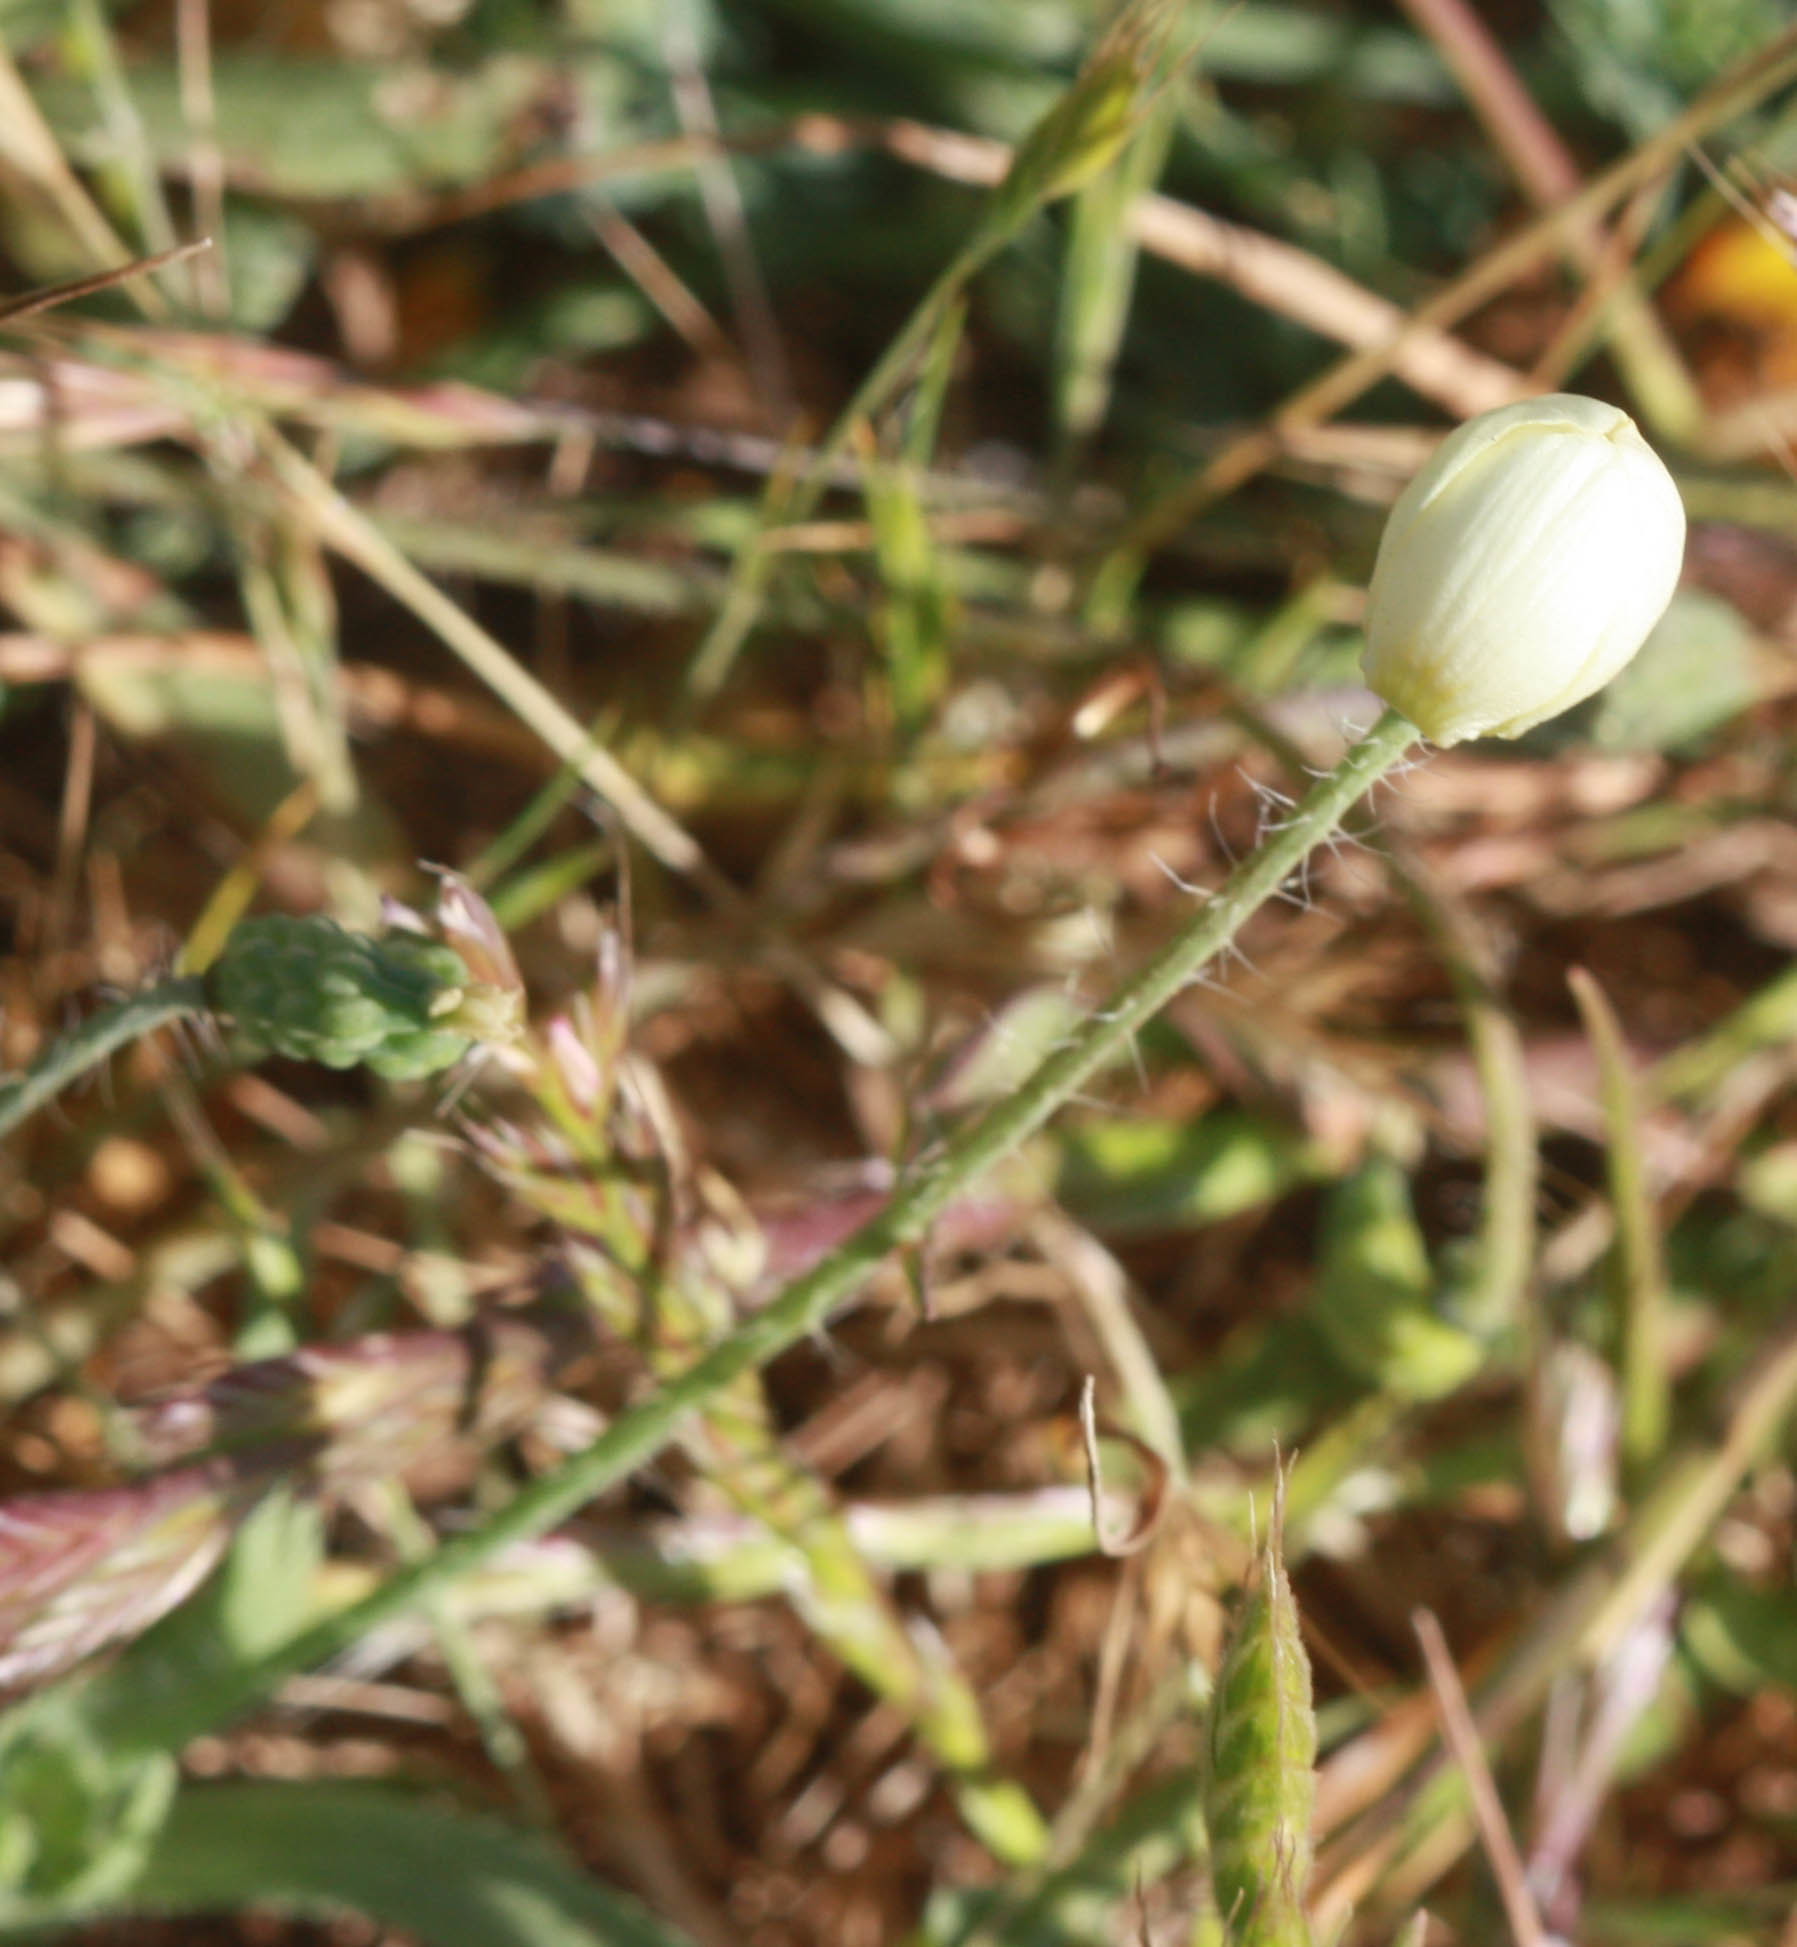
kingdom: Plantae
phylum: Tracheophyta
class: Magnoliopsida
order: Ranunculales
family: Papaveraceae
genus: Platystemon
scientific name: Platystemon californicus
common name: Cream-cups
